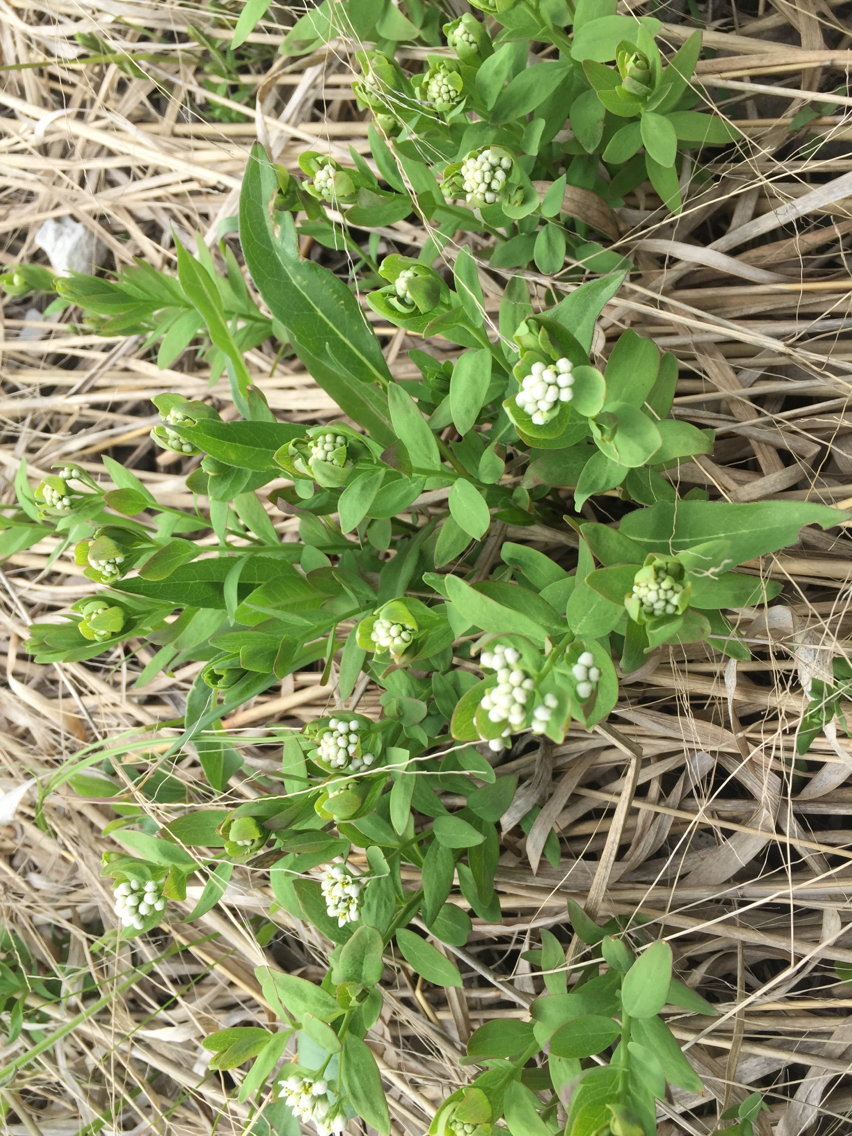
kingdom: Plantae
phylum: Tracheophyta
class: Magnoliopsida
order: Santalales
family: Comandraceae
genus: Comandra
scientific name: Comandra umbellata
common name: Bastard toadflax
